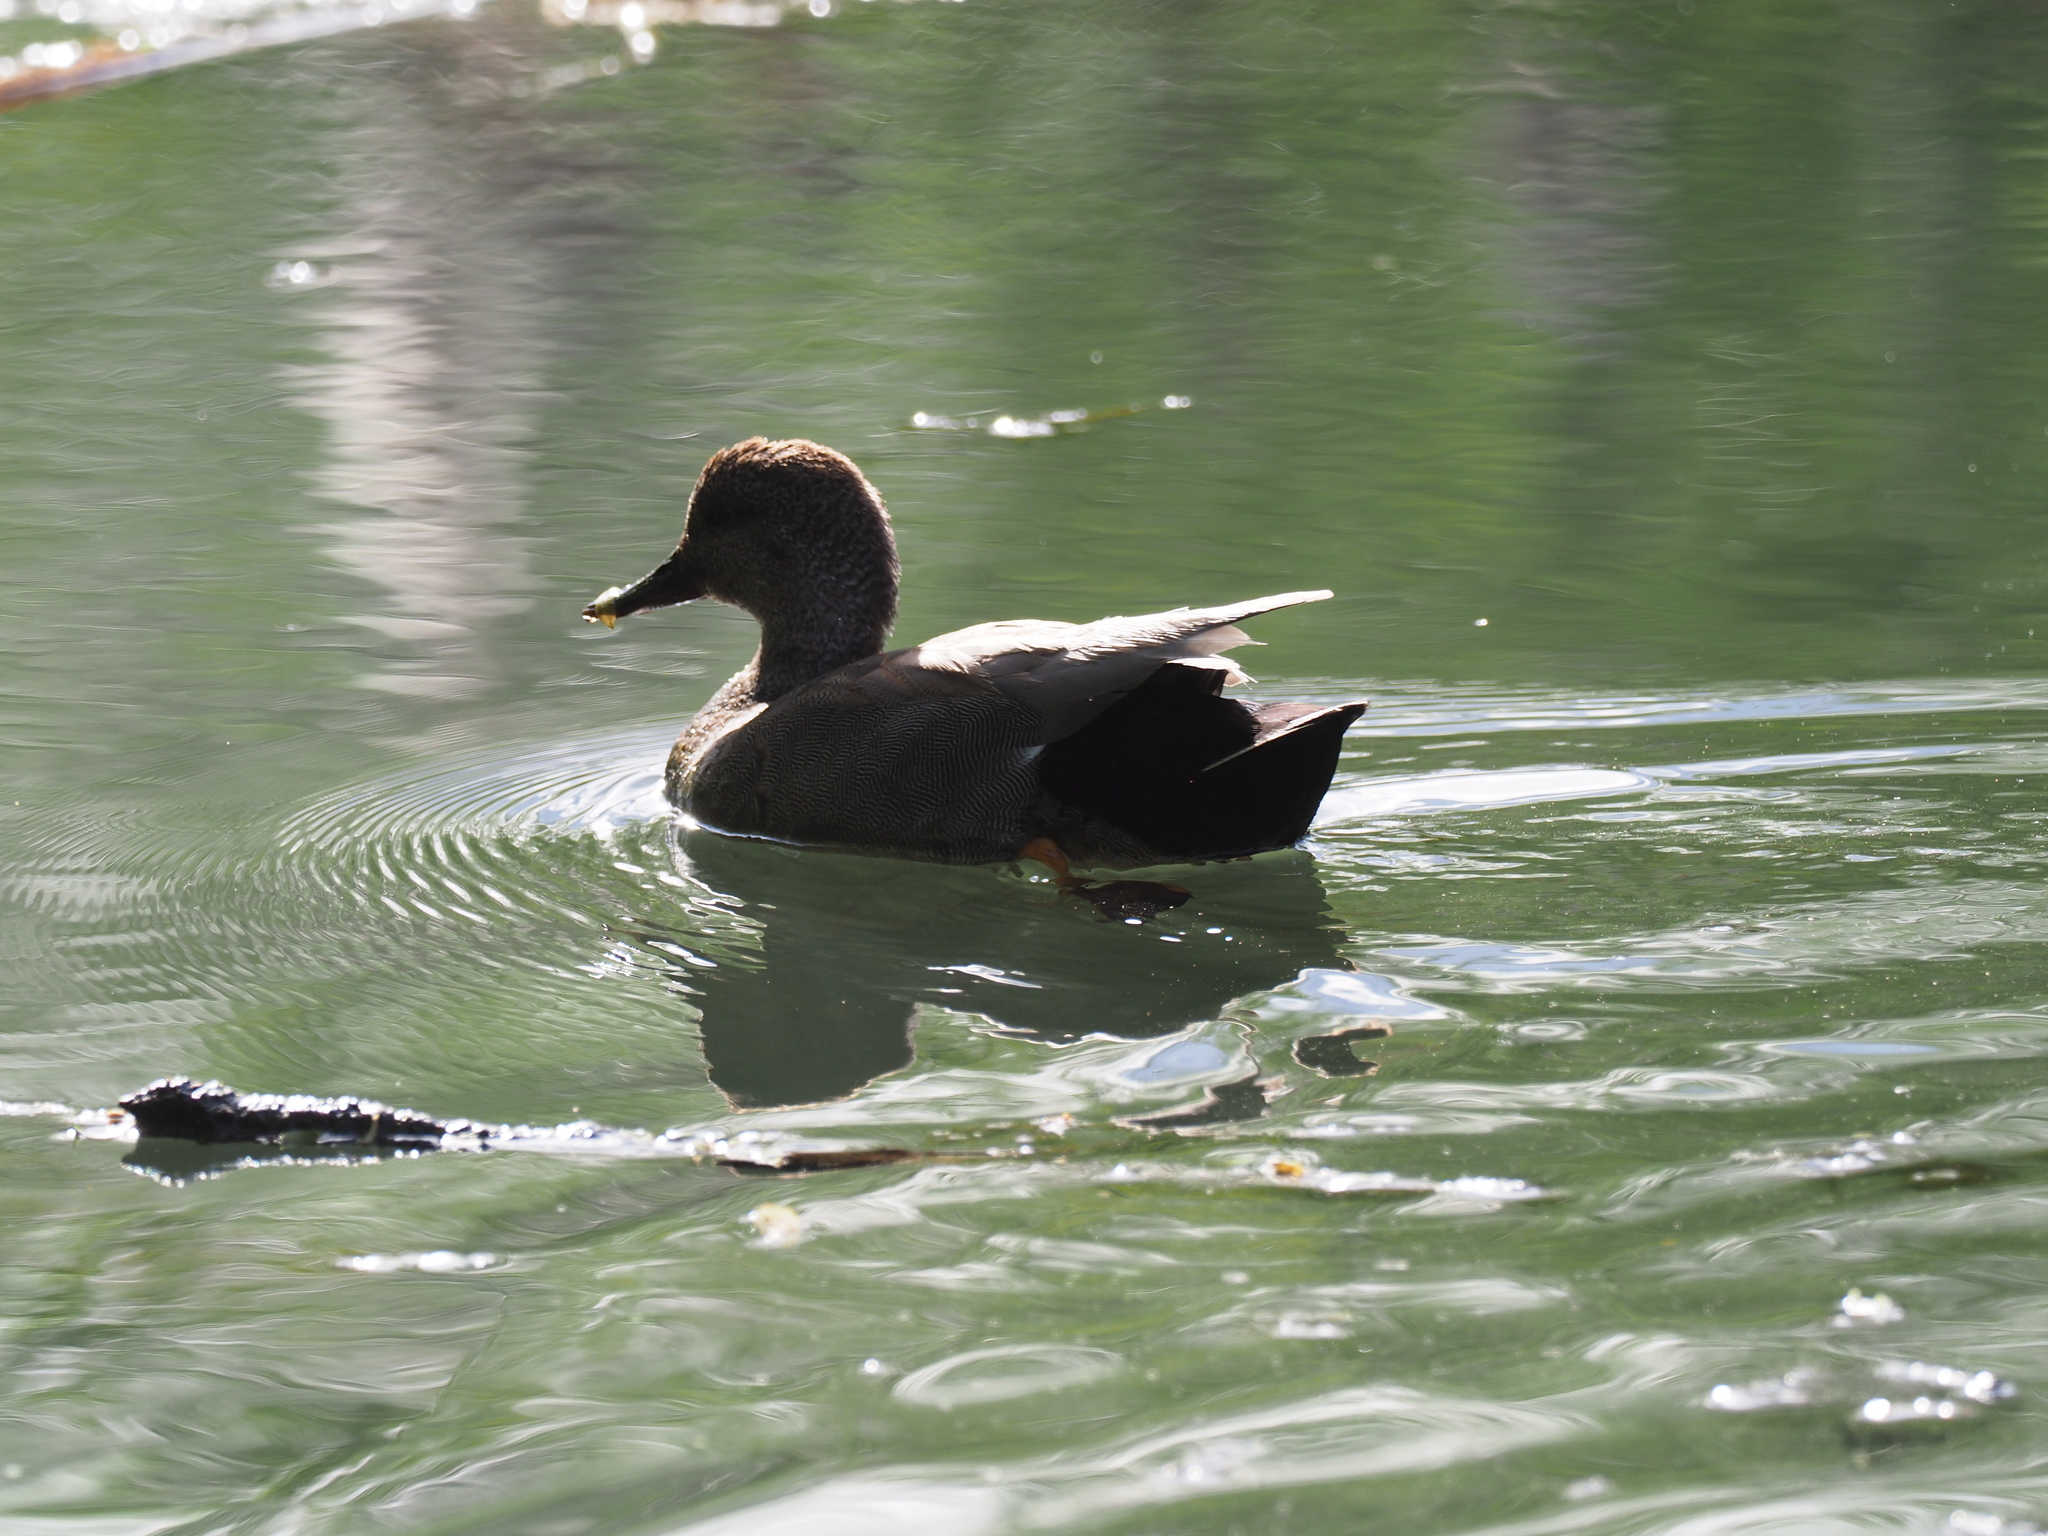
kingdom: Animalia
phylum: Chordata
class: Aves
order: Anseriformes
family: Anatidae
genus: Mareca
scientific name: Mareca strepera
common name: Gadwall
